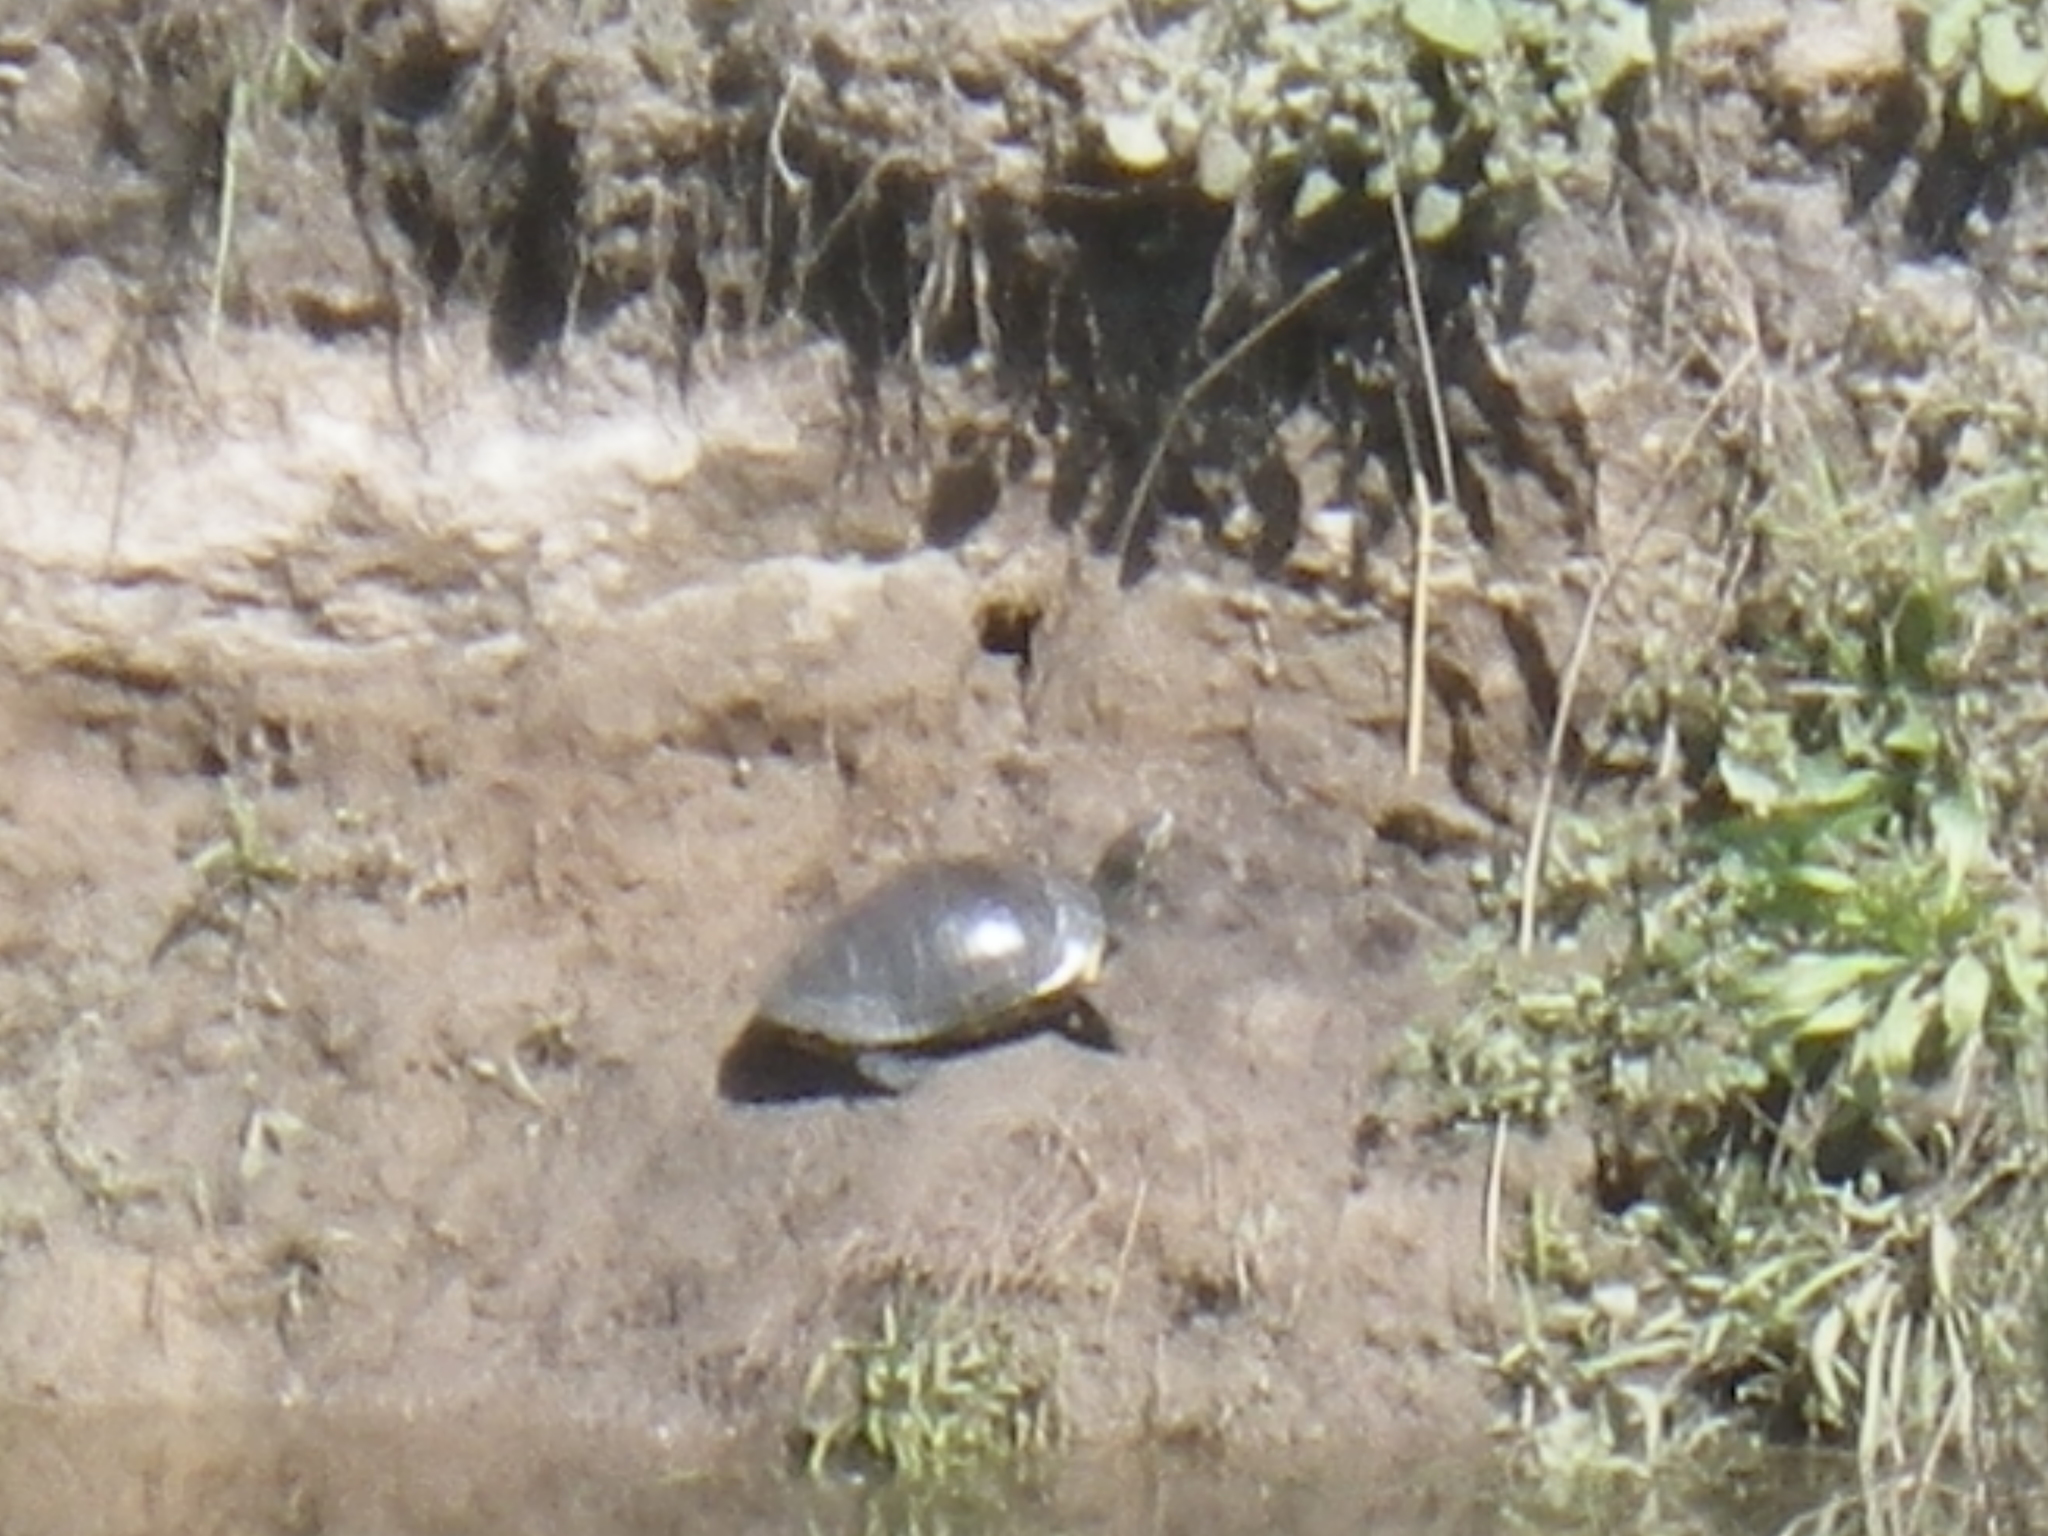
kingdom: Animalia
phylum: Chordata
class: Testudines
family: Emydidae
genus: Trachemys
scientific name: Trachemys scripta
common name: Slider
